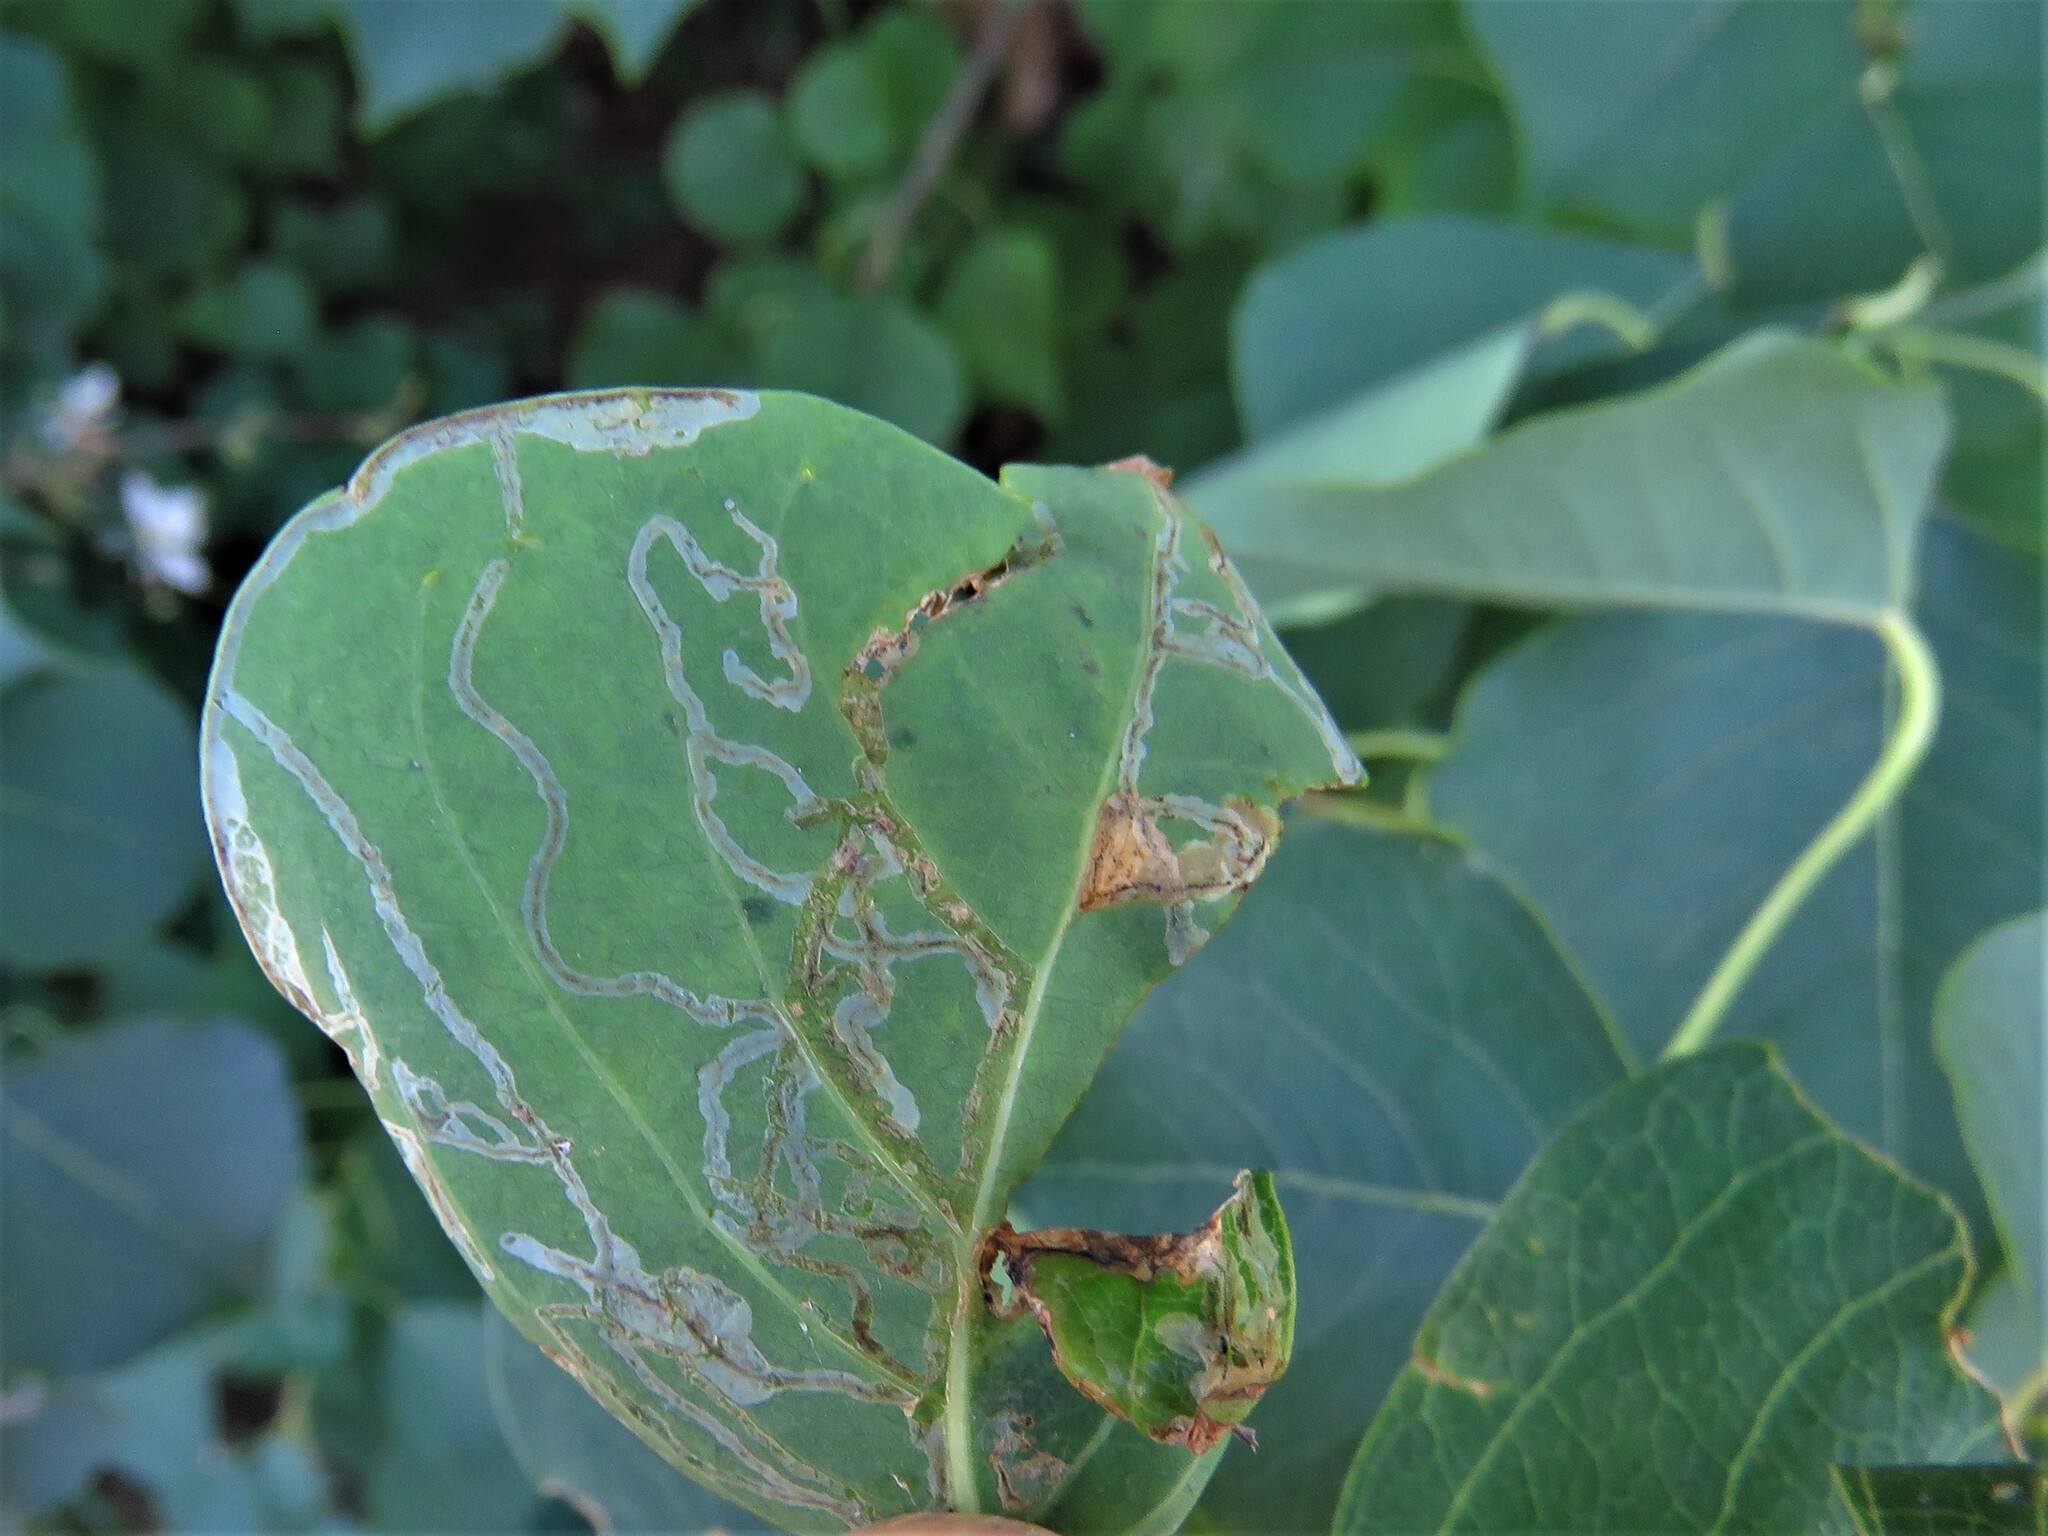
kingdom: Animalia
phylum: Arthropoda
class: Insecta
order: Lepidoptera
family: Gracillariidae
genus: Caloptilia
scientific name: Caloptilia triadicae
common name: Tallow leaf roller
